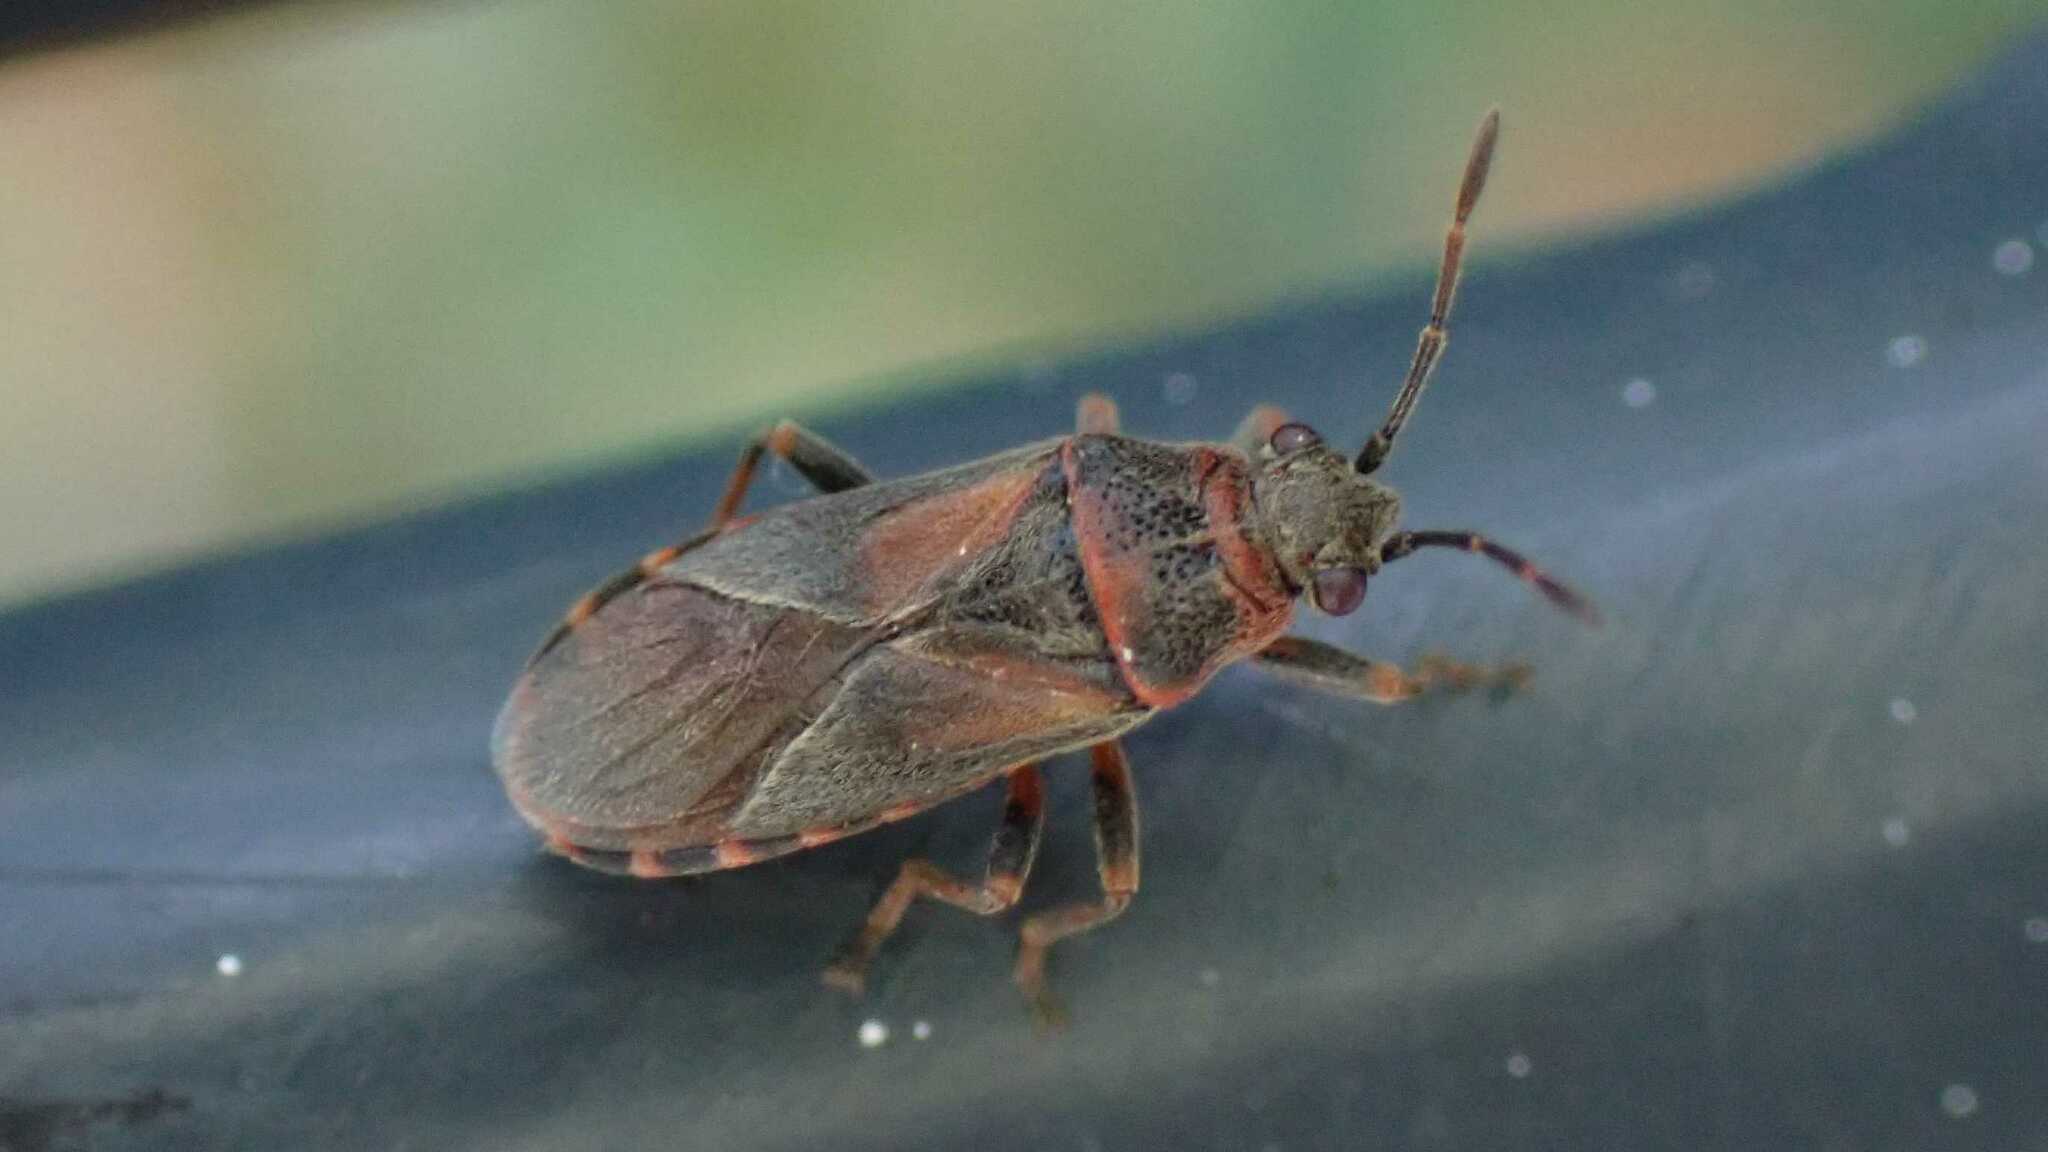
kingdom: Animalia
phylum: Arthropoda
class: Insecta
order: Hemiptera
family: Lygaeidae
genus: Arocatus
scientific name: Arocatus melanocephalus
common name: Lygaeid bug
